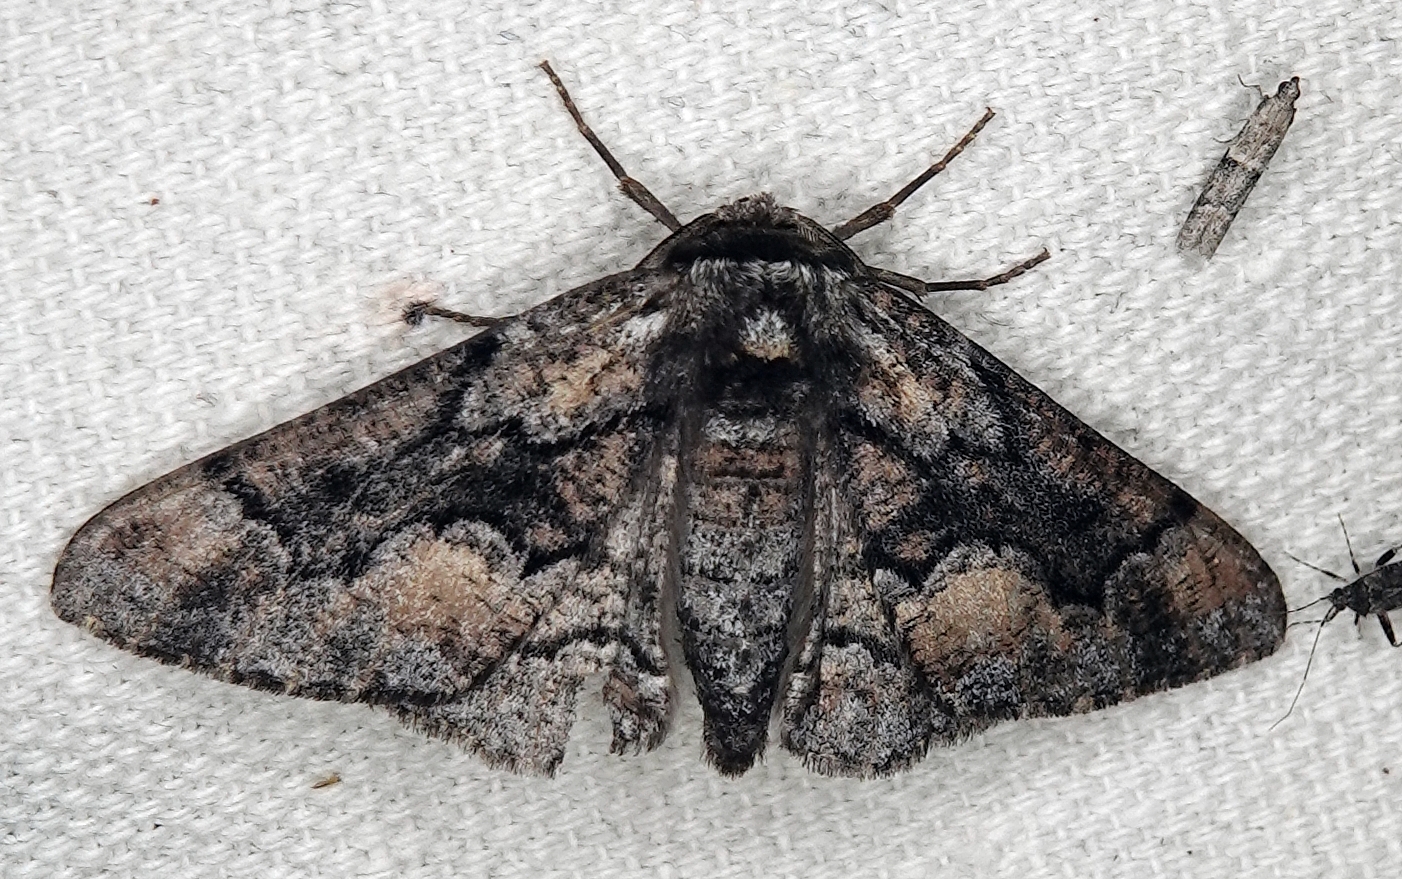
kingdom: Animalia
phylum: Arthropoda
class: Insecta
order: Lepidoptera
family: Geometridae
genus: Phaeoura
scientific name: Phaeoura mexicanaria
